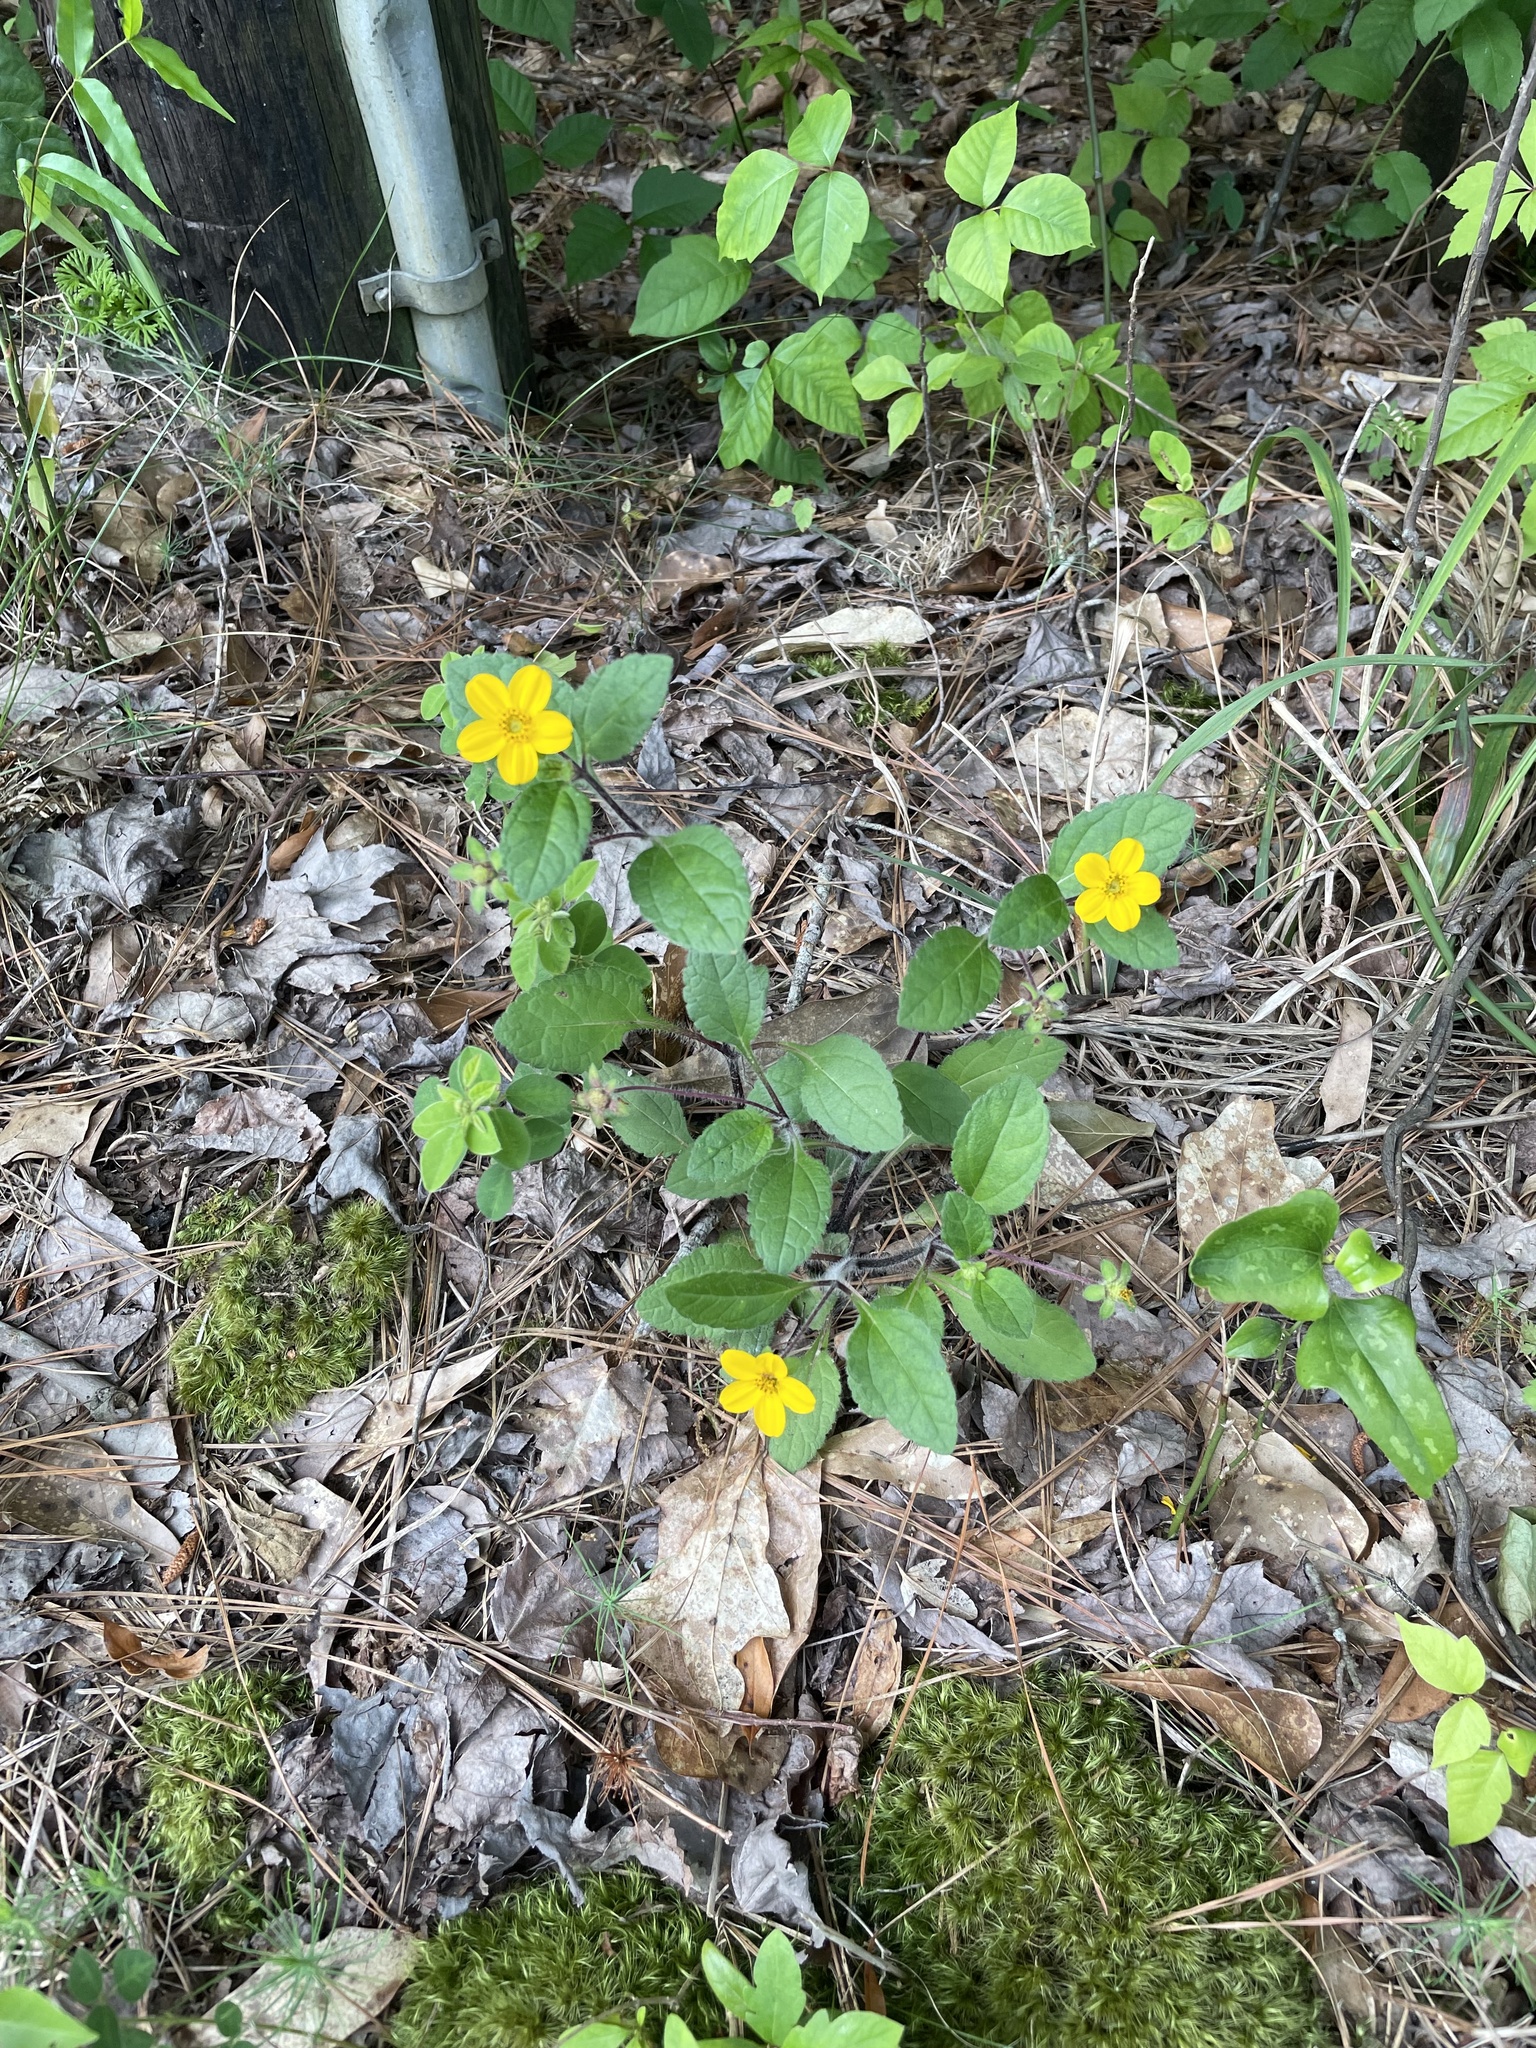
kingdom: Plantae
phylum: Tracheophyta
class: Magnoliopsida
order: Asterales
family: Asteraceae
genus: Chrysogonum
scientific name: Chrysogonum virginianum
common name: Golden-knee
